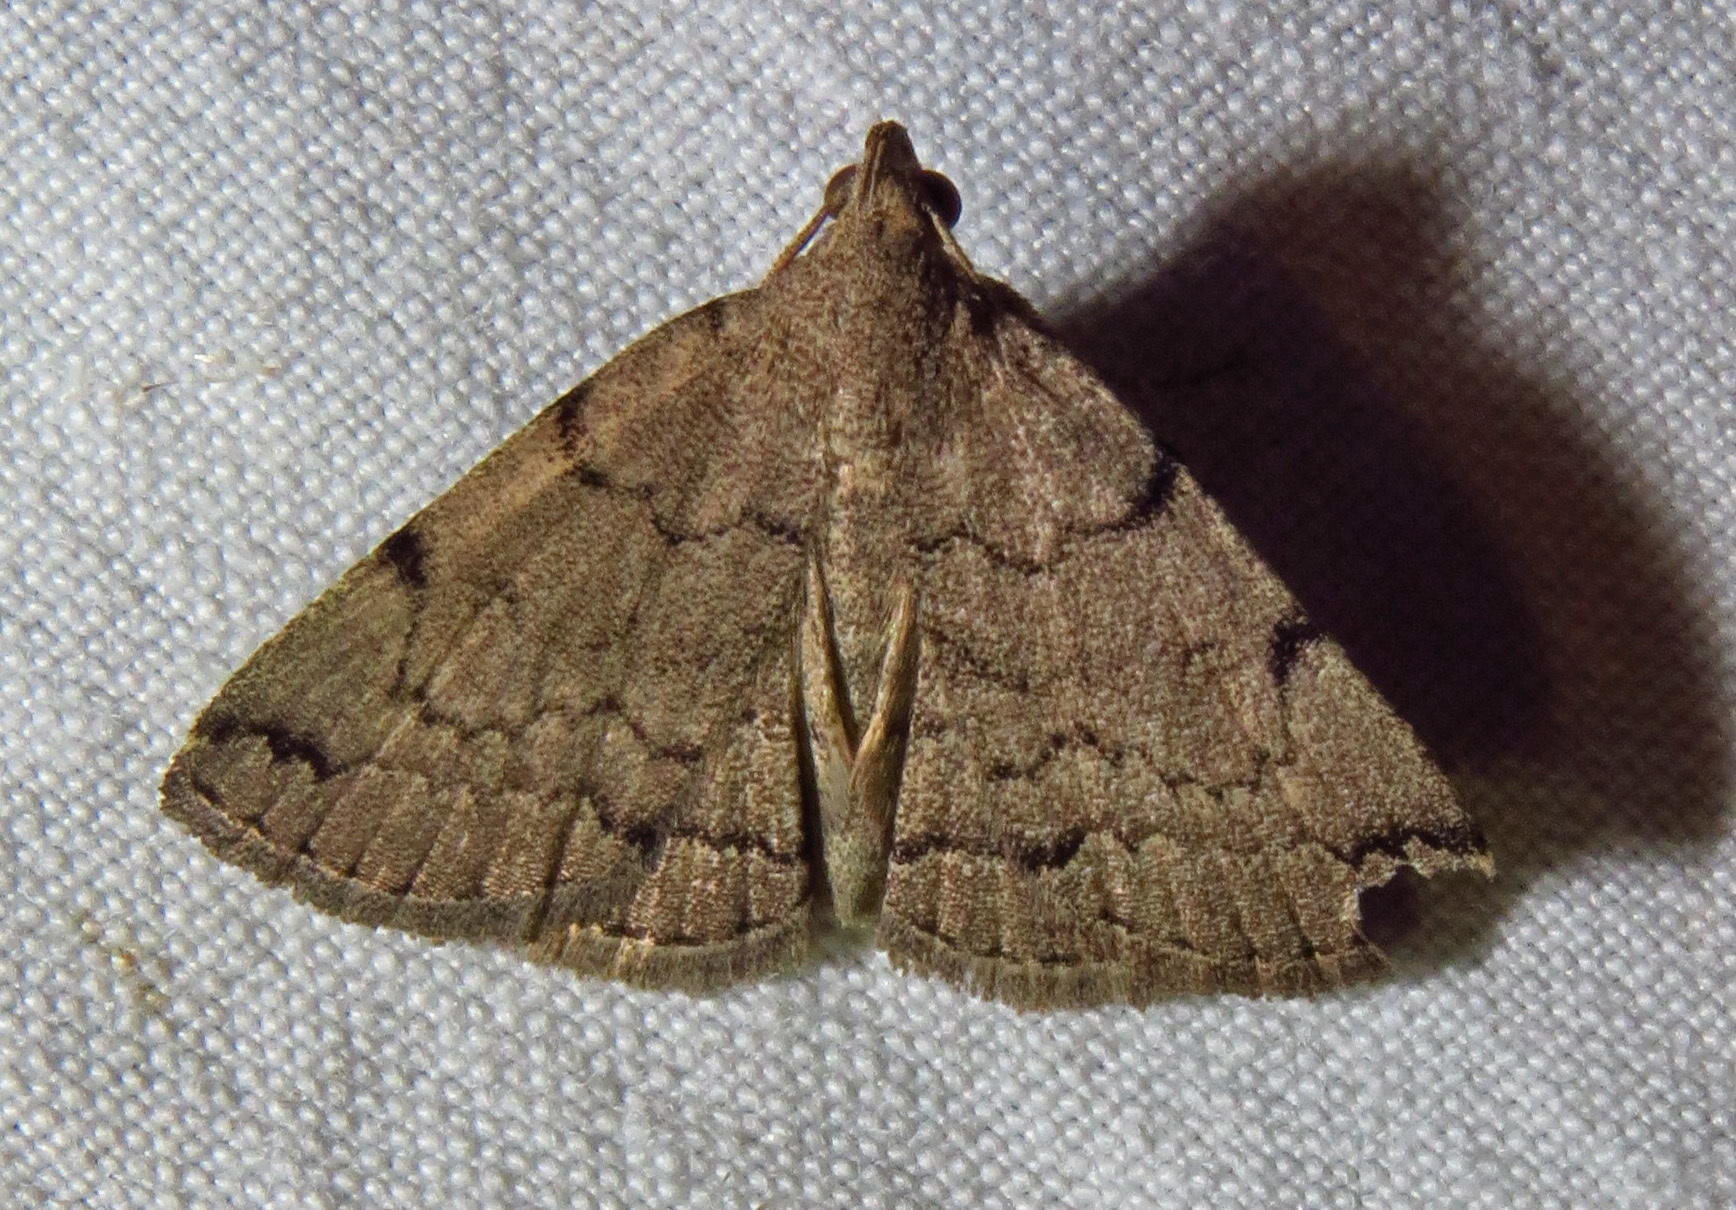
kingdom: Animalia
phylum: Arthropoda
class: Insecta
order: Lepidoptera
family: Erebidae
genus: Zanclognatha
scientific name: Zanclognatha theralis
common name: Flagged fan-foot
